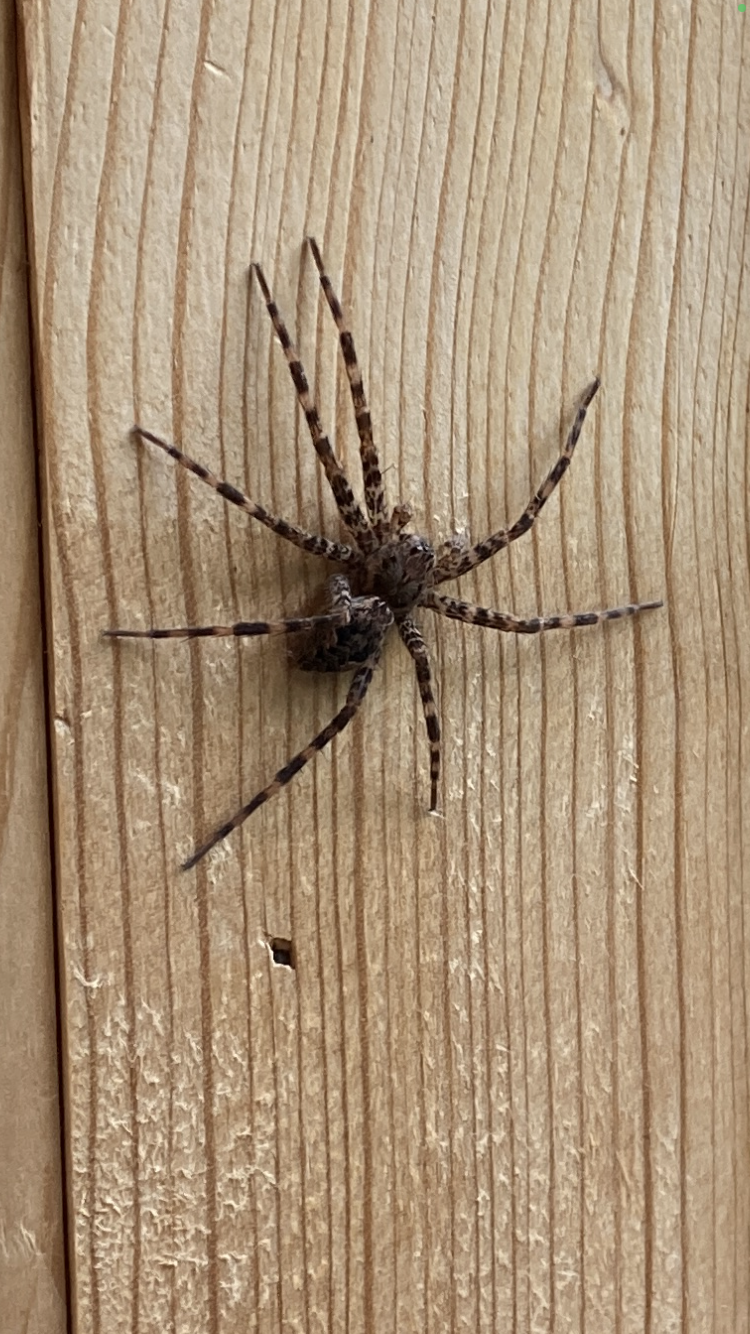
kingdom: Animalia
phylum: Arthropoda
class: Arachnida
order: Araneae
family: Pisauridae
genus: Dolomedes
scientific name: Dolomedes tenebrosus
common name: Dark fishing spider
